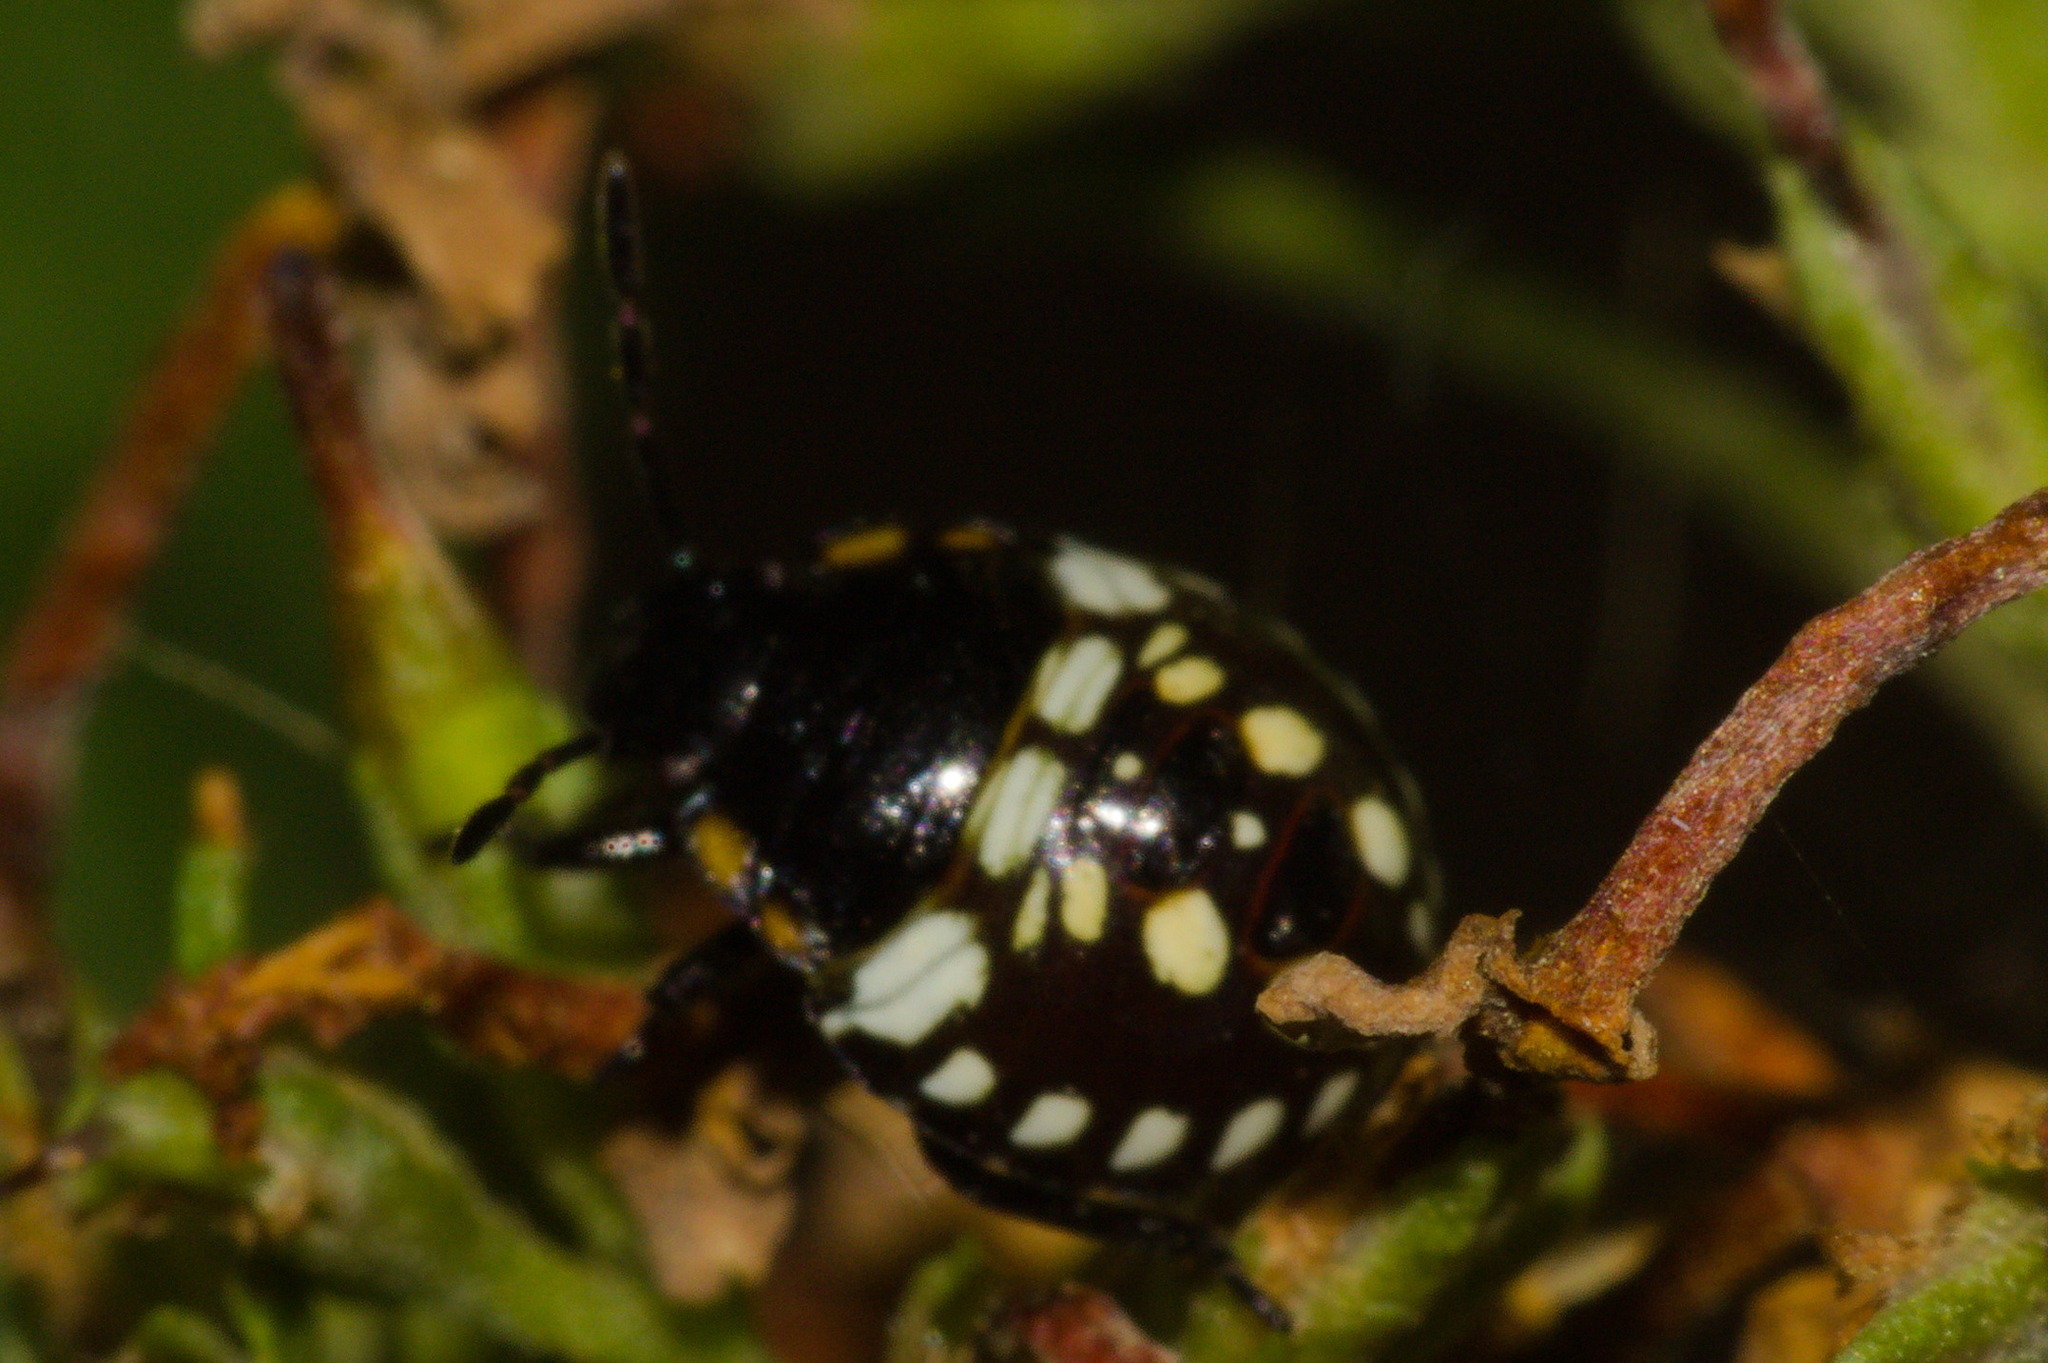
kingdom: Animalia
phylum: Arthropoda
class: Insecta
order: Hemiptera
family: Pentatomidae
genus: Nezara
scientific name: Nezara viridula
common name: Southern green stink bug
